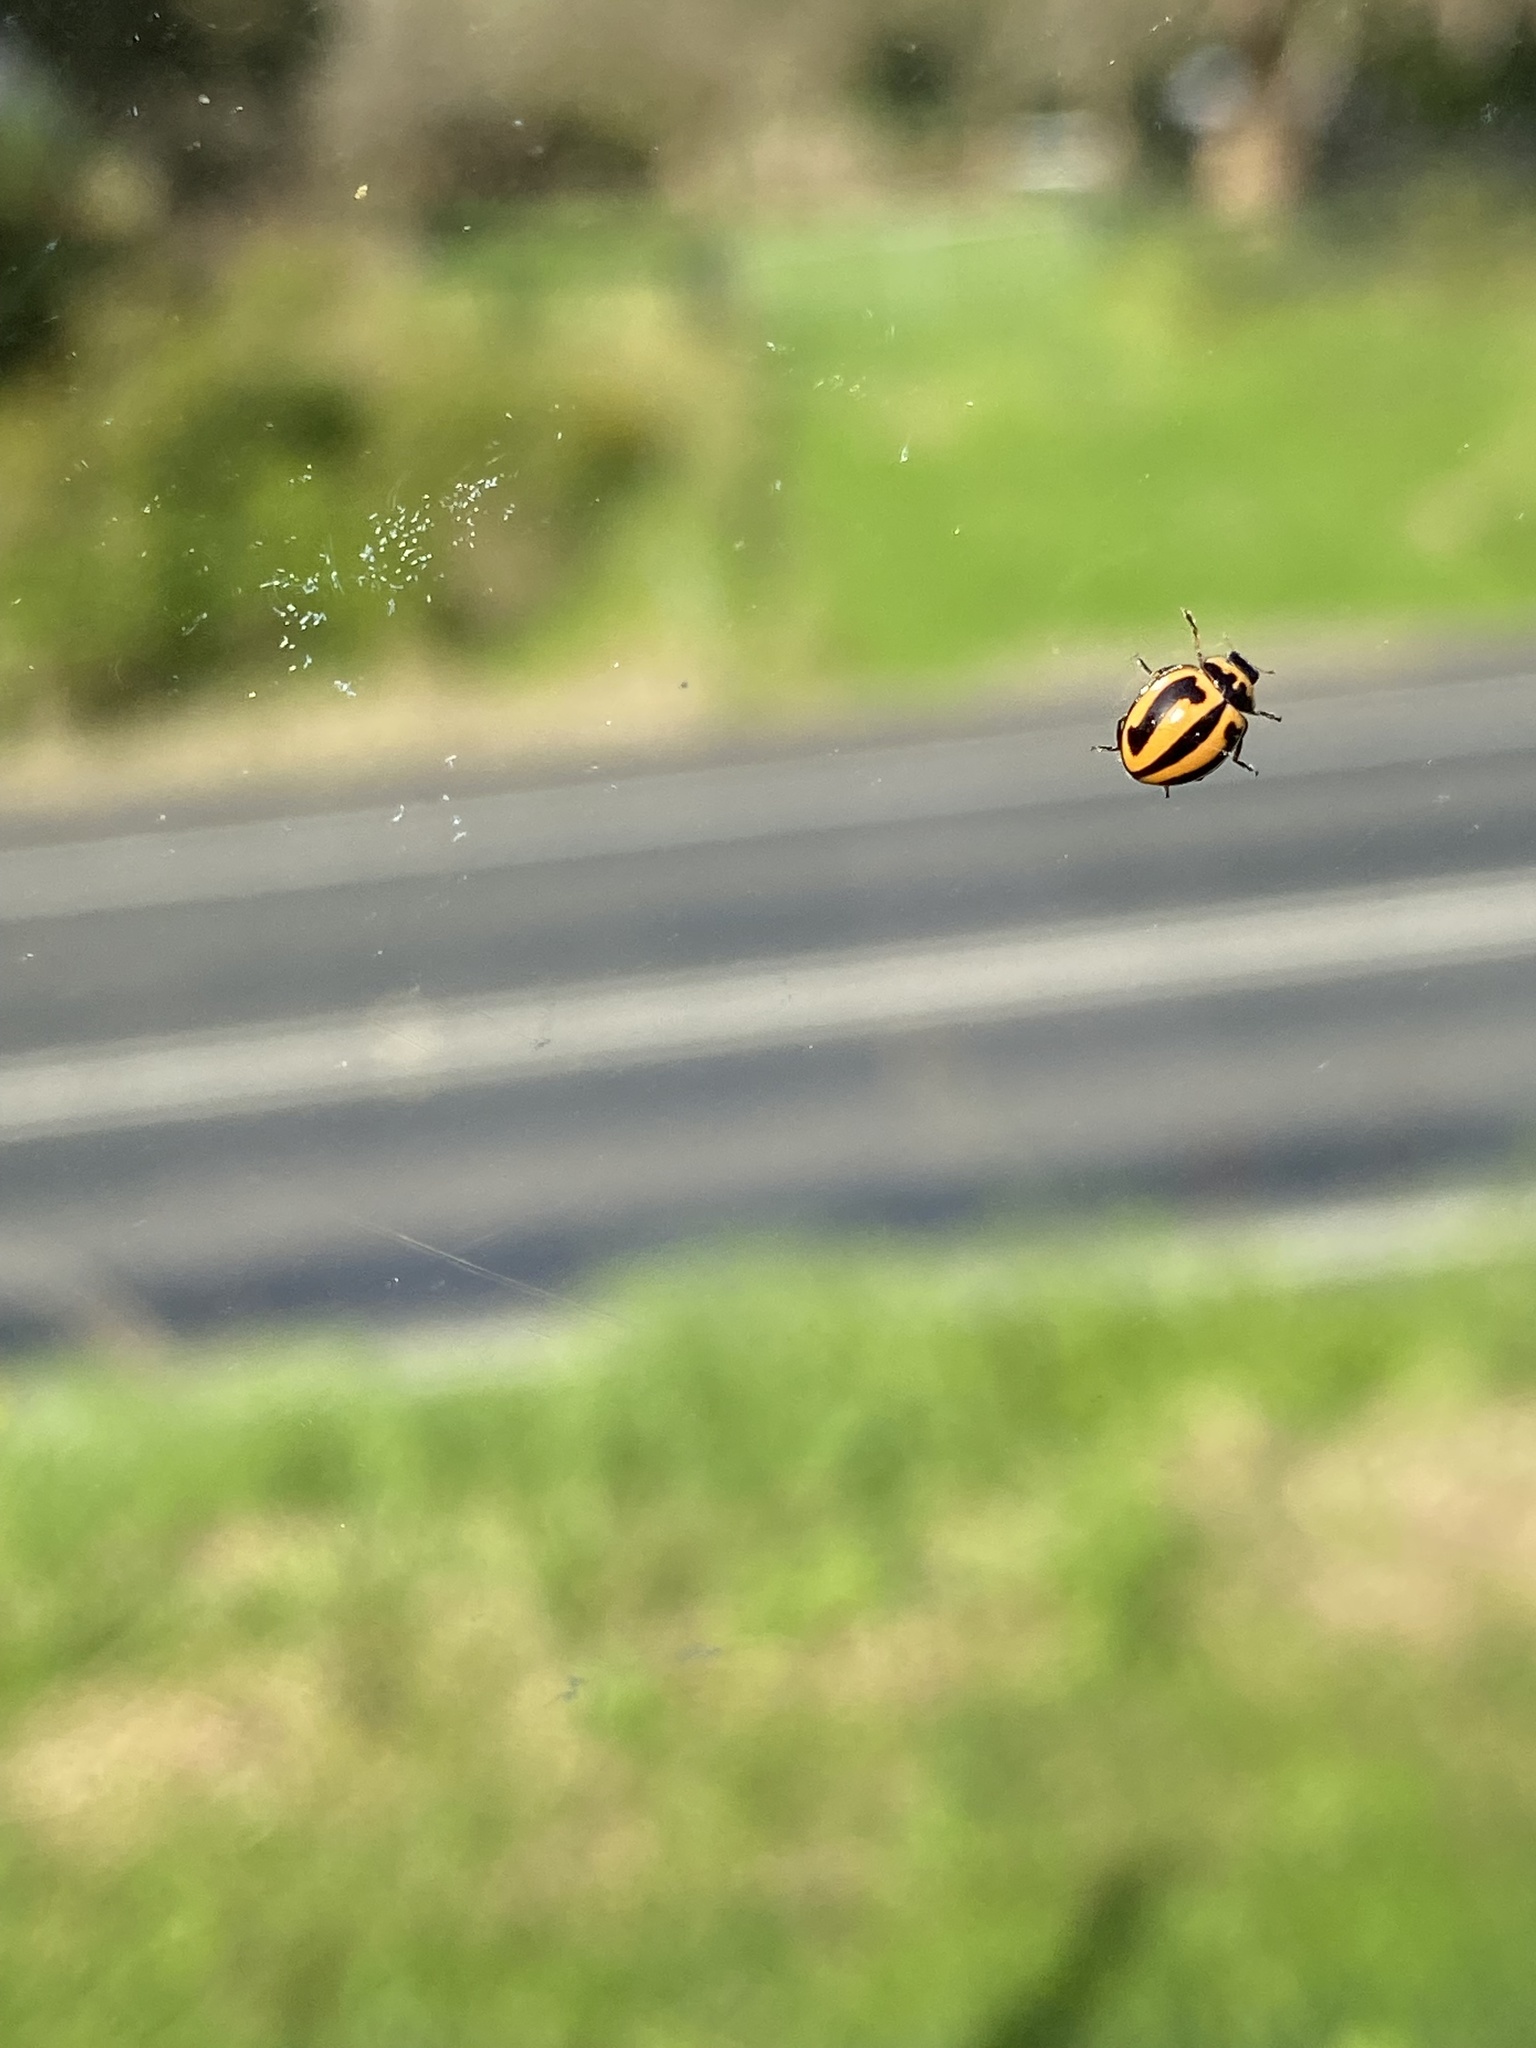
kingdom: Animalia
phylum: Arthropoda
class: Insecta
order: Coleoptera
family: Coccinellidae
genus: Micraspis
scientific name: Micraspis frenata
